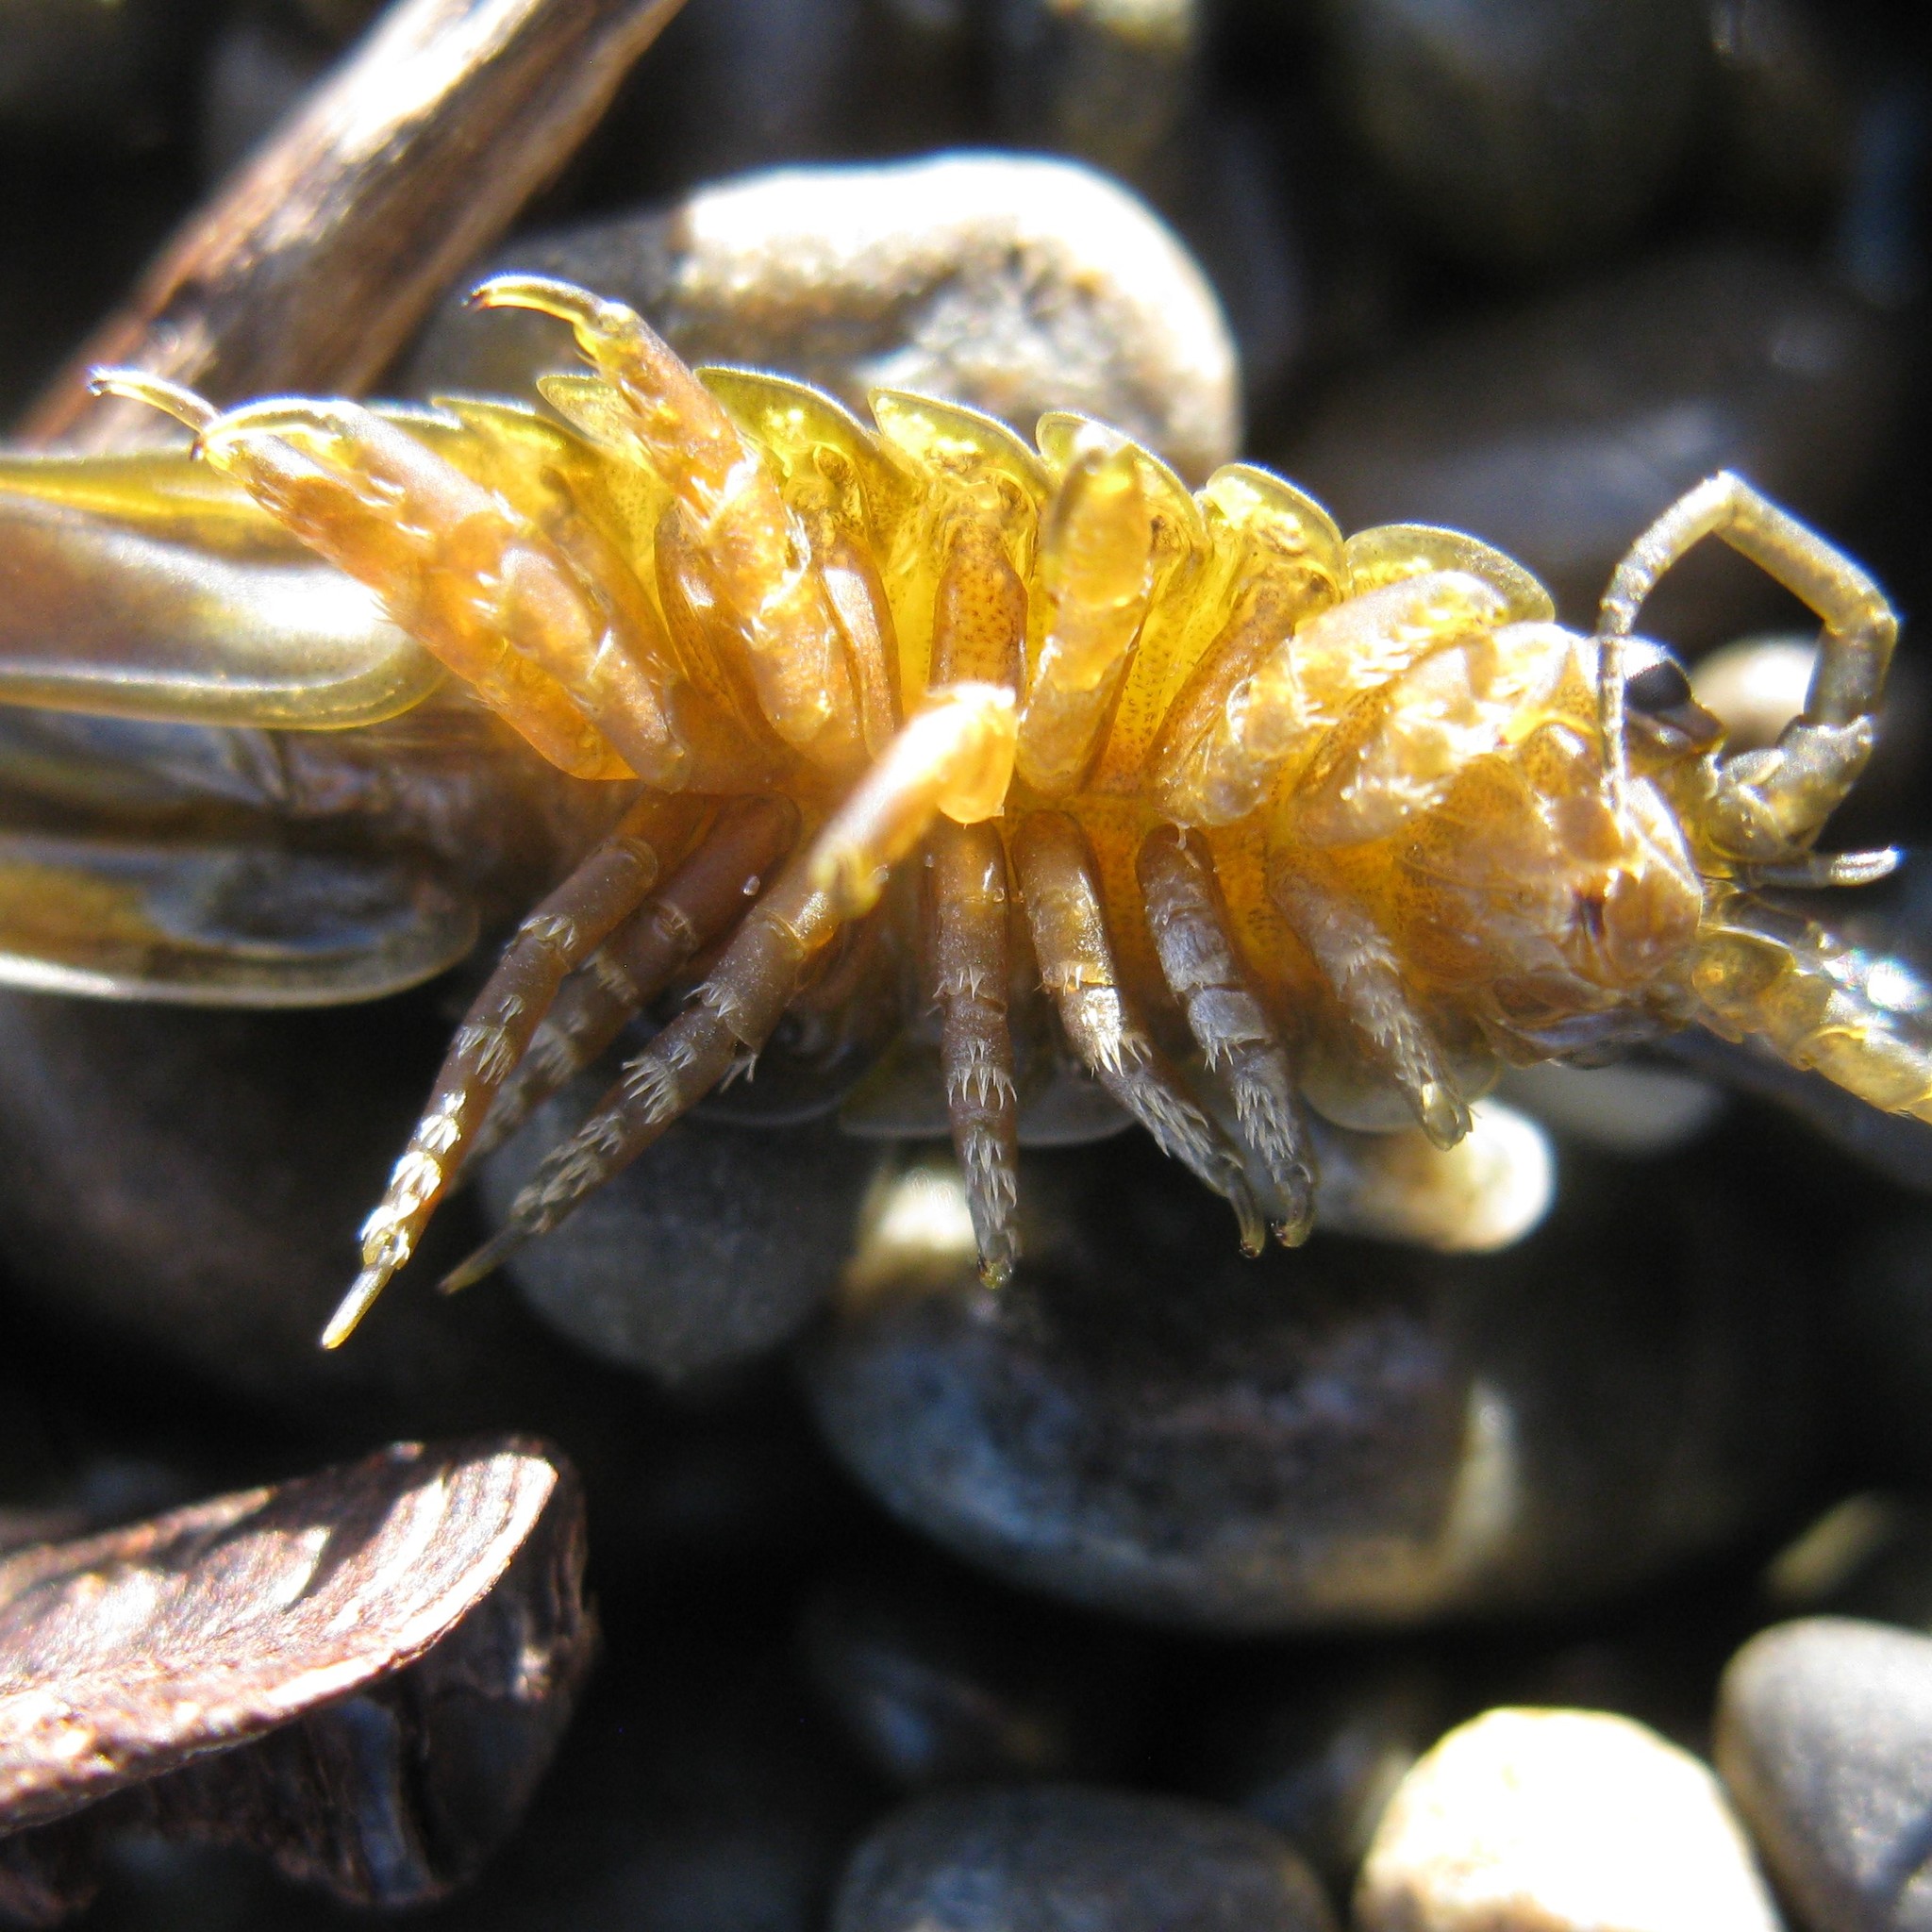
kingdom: Animalia
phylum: Arthropoda
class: Malacostraca
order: Isopoda
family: Idoteidae
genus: Idotea
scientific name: Idotea metallica
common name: Metallic marine isopod
